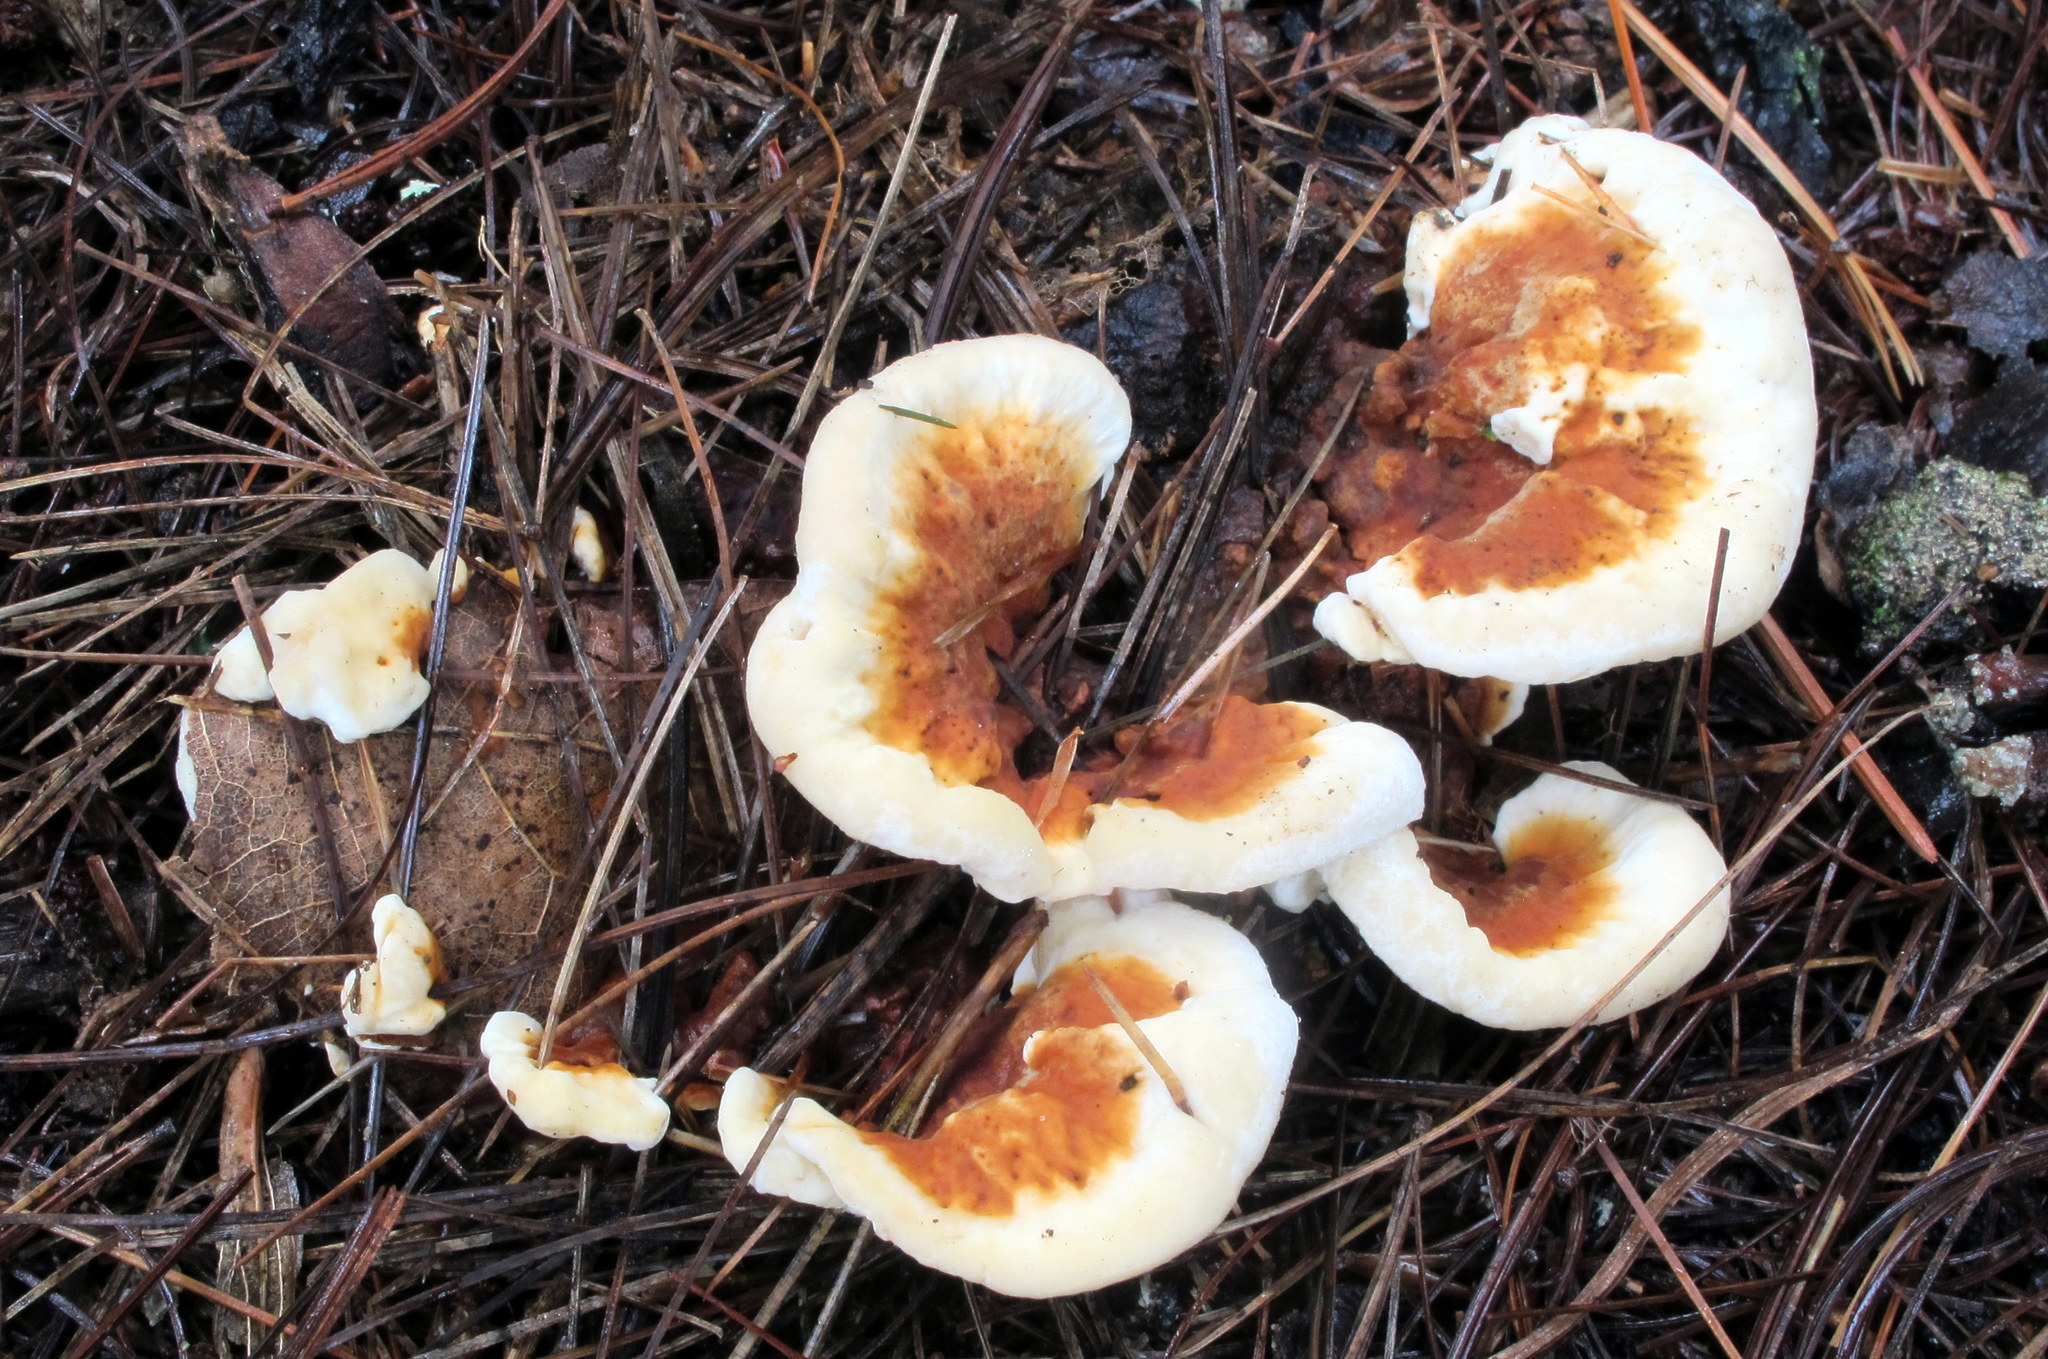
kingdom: Fungi
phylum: Basidiomycota
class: Agaricomycetes
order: Russulales
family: Bondarzewiaceae
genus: Heterobasidion
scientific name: Heterobasidion annosum
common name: Root rot
